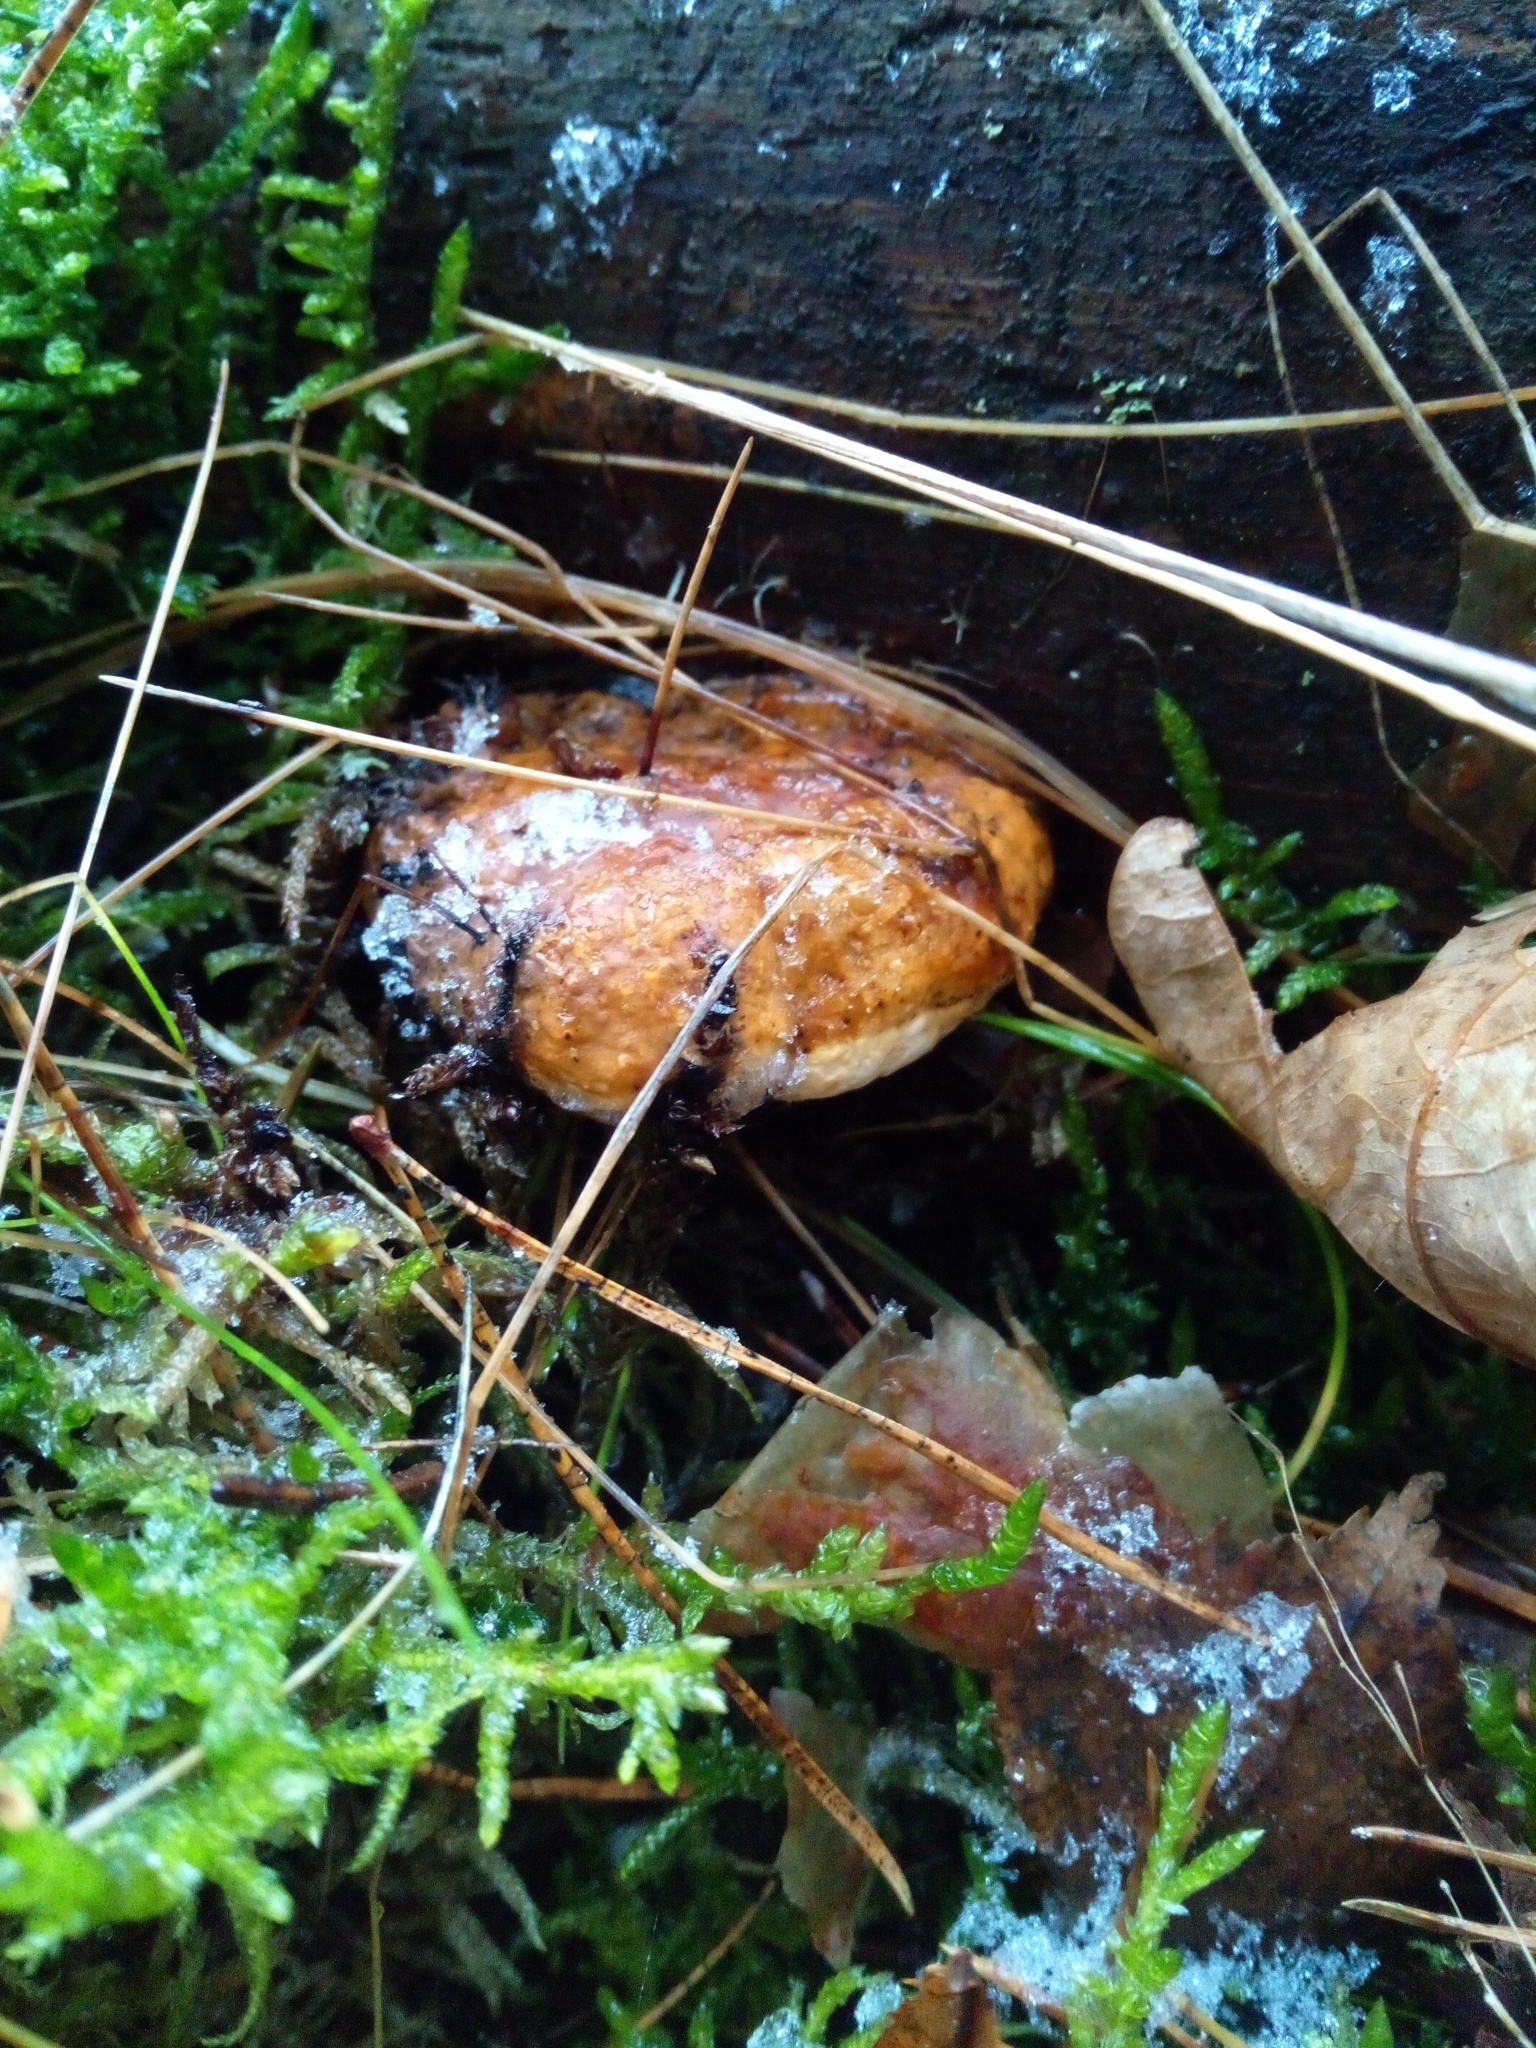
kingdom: Fungi
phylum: Basidiomycota
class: Agaricomycetes
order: Polyporales
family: Fomitopsidaceae
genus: Fomitopsis
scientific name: Fomitopsis pinicola
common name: Red-belted bracket
